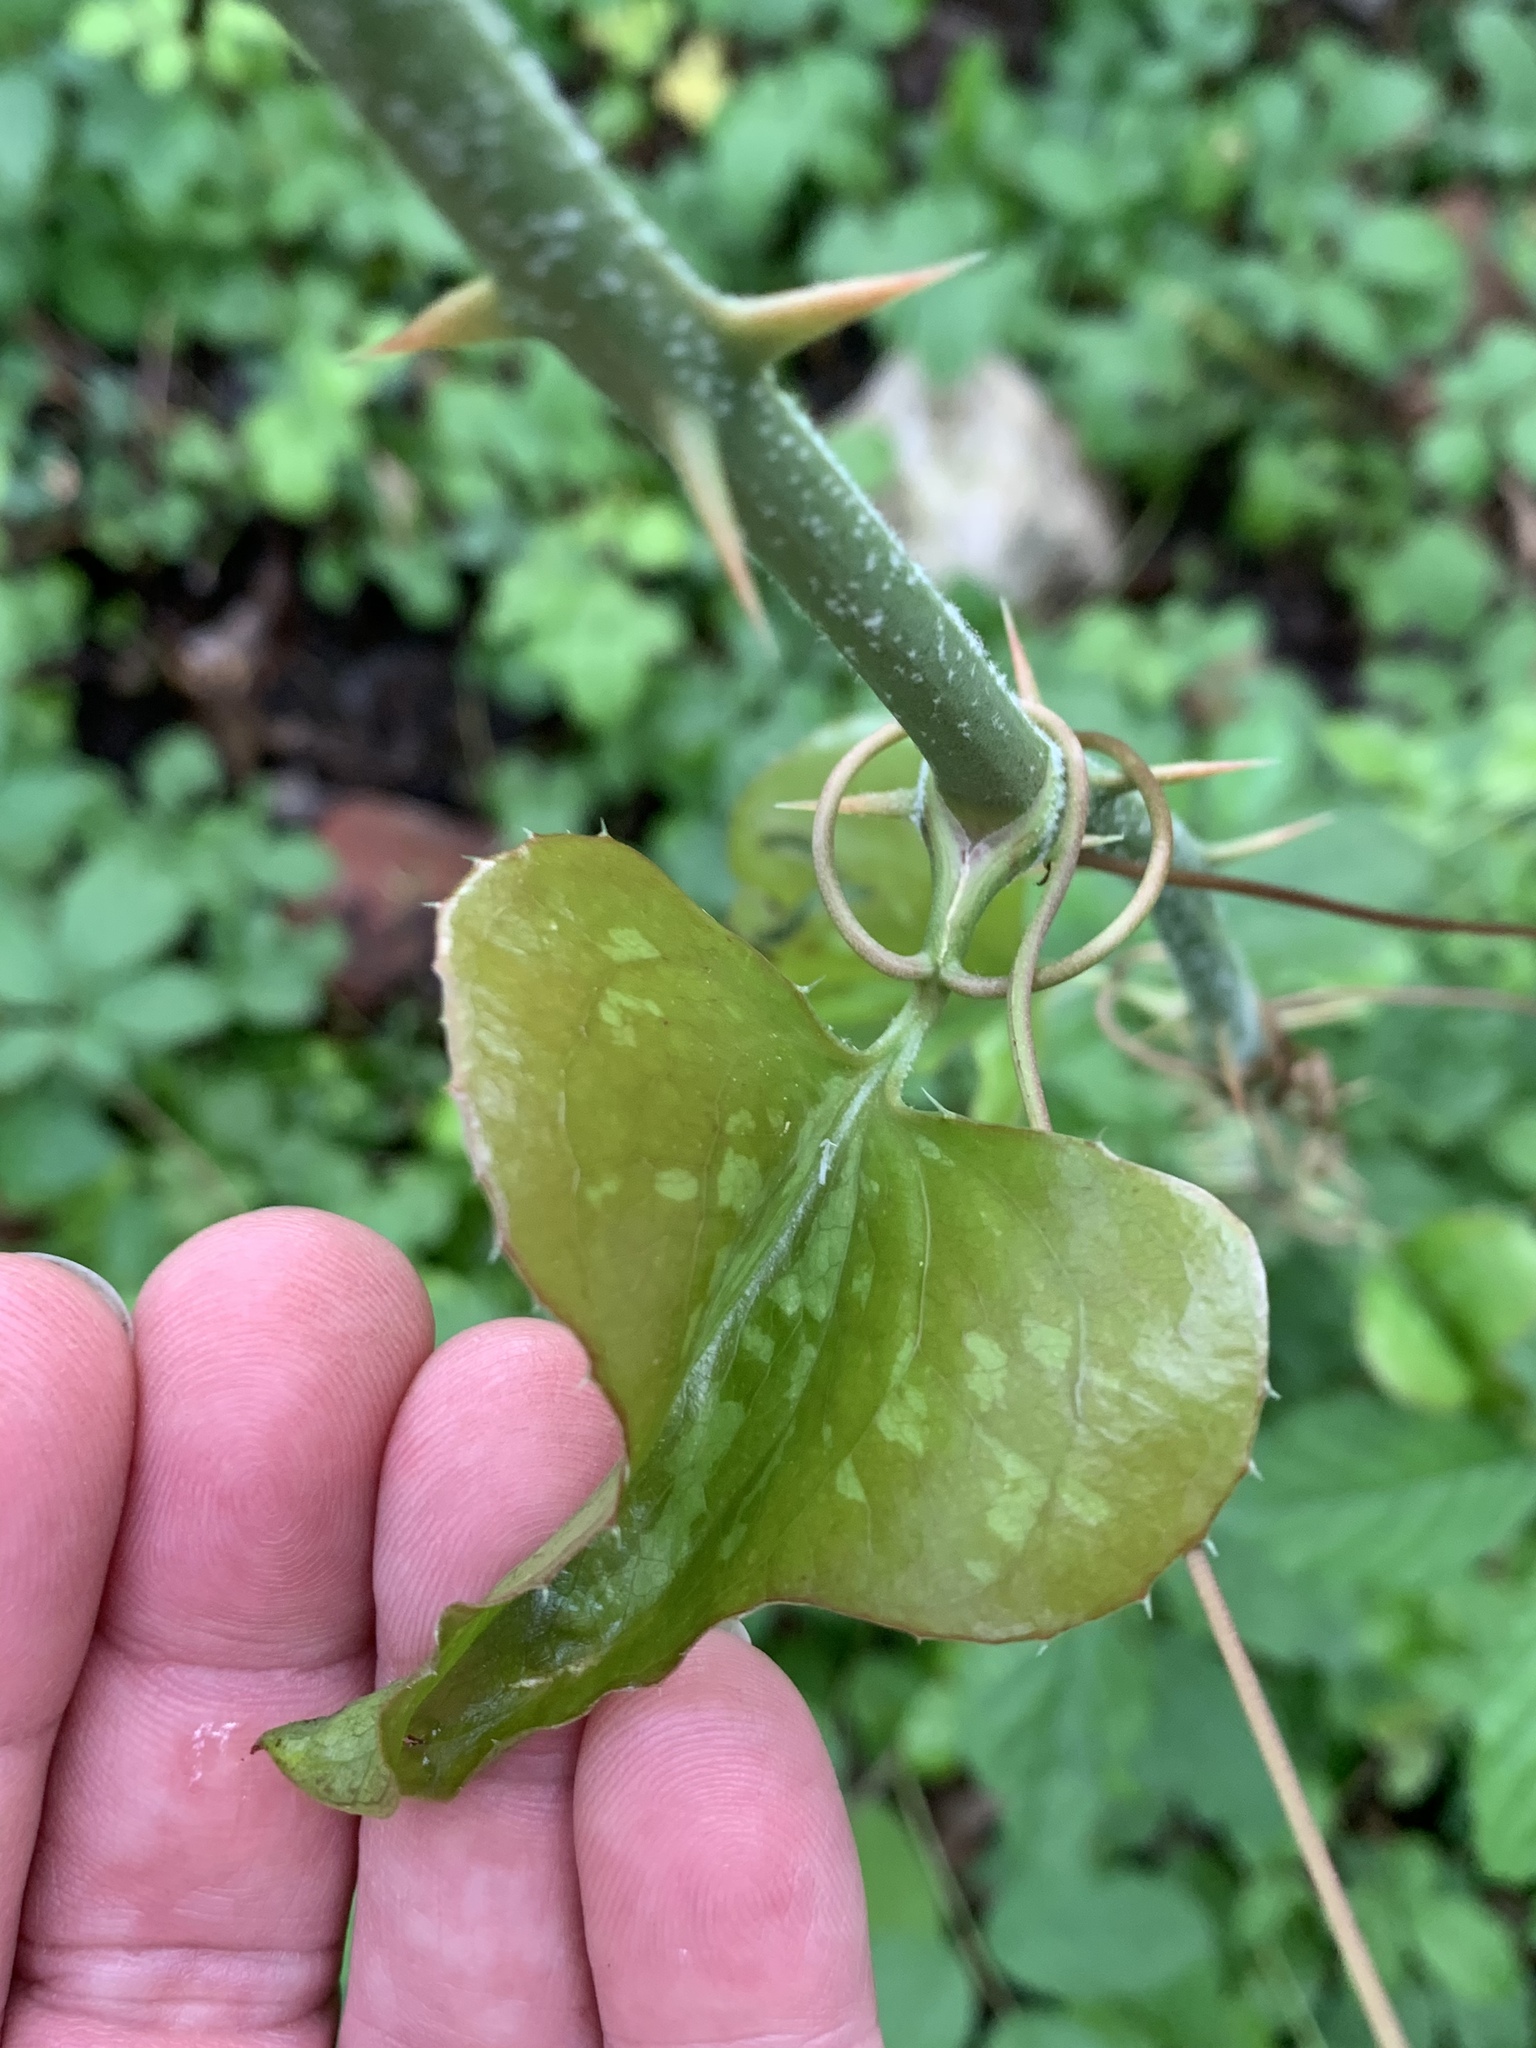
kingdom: Plantae
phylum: Tracheophyta
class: Liliopsida
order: Liliales
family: Smilacaceae
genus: Smilax
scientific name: Smilax bona-nox
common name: Catbrier
